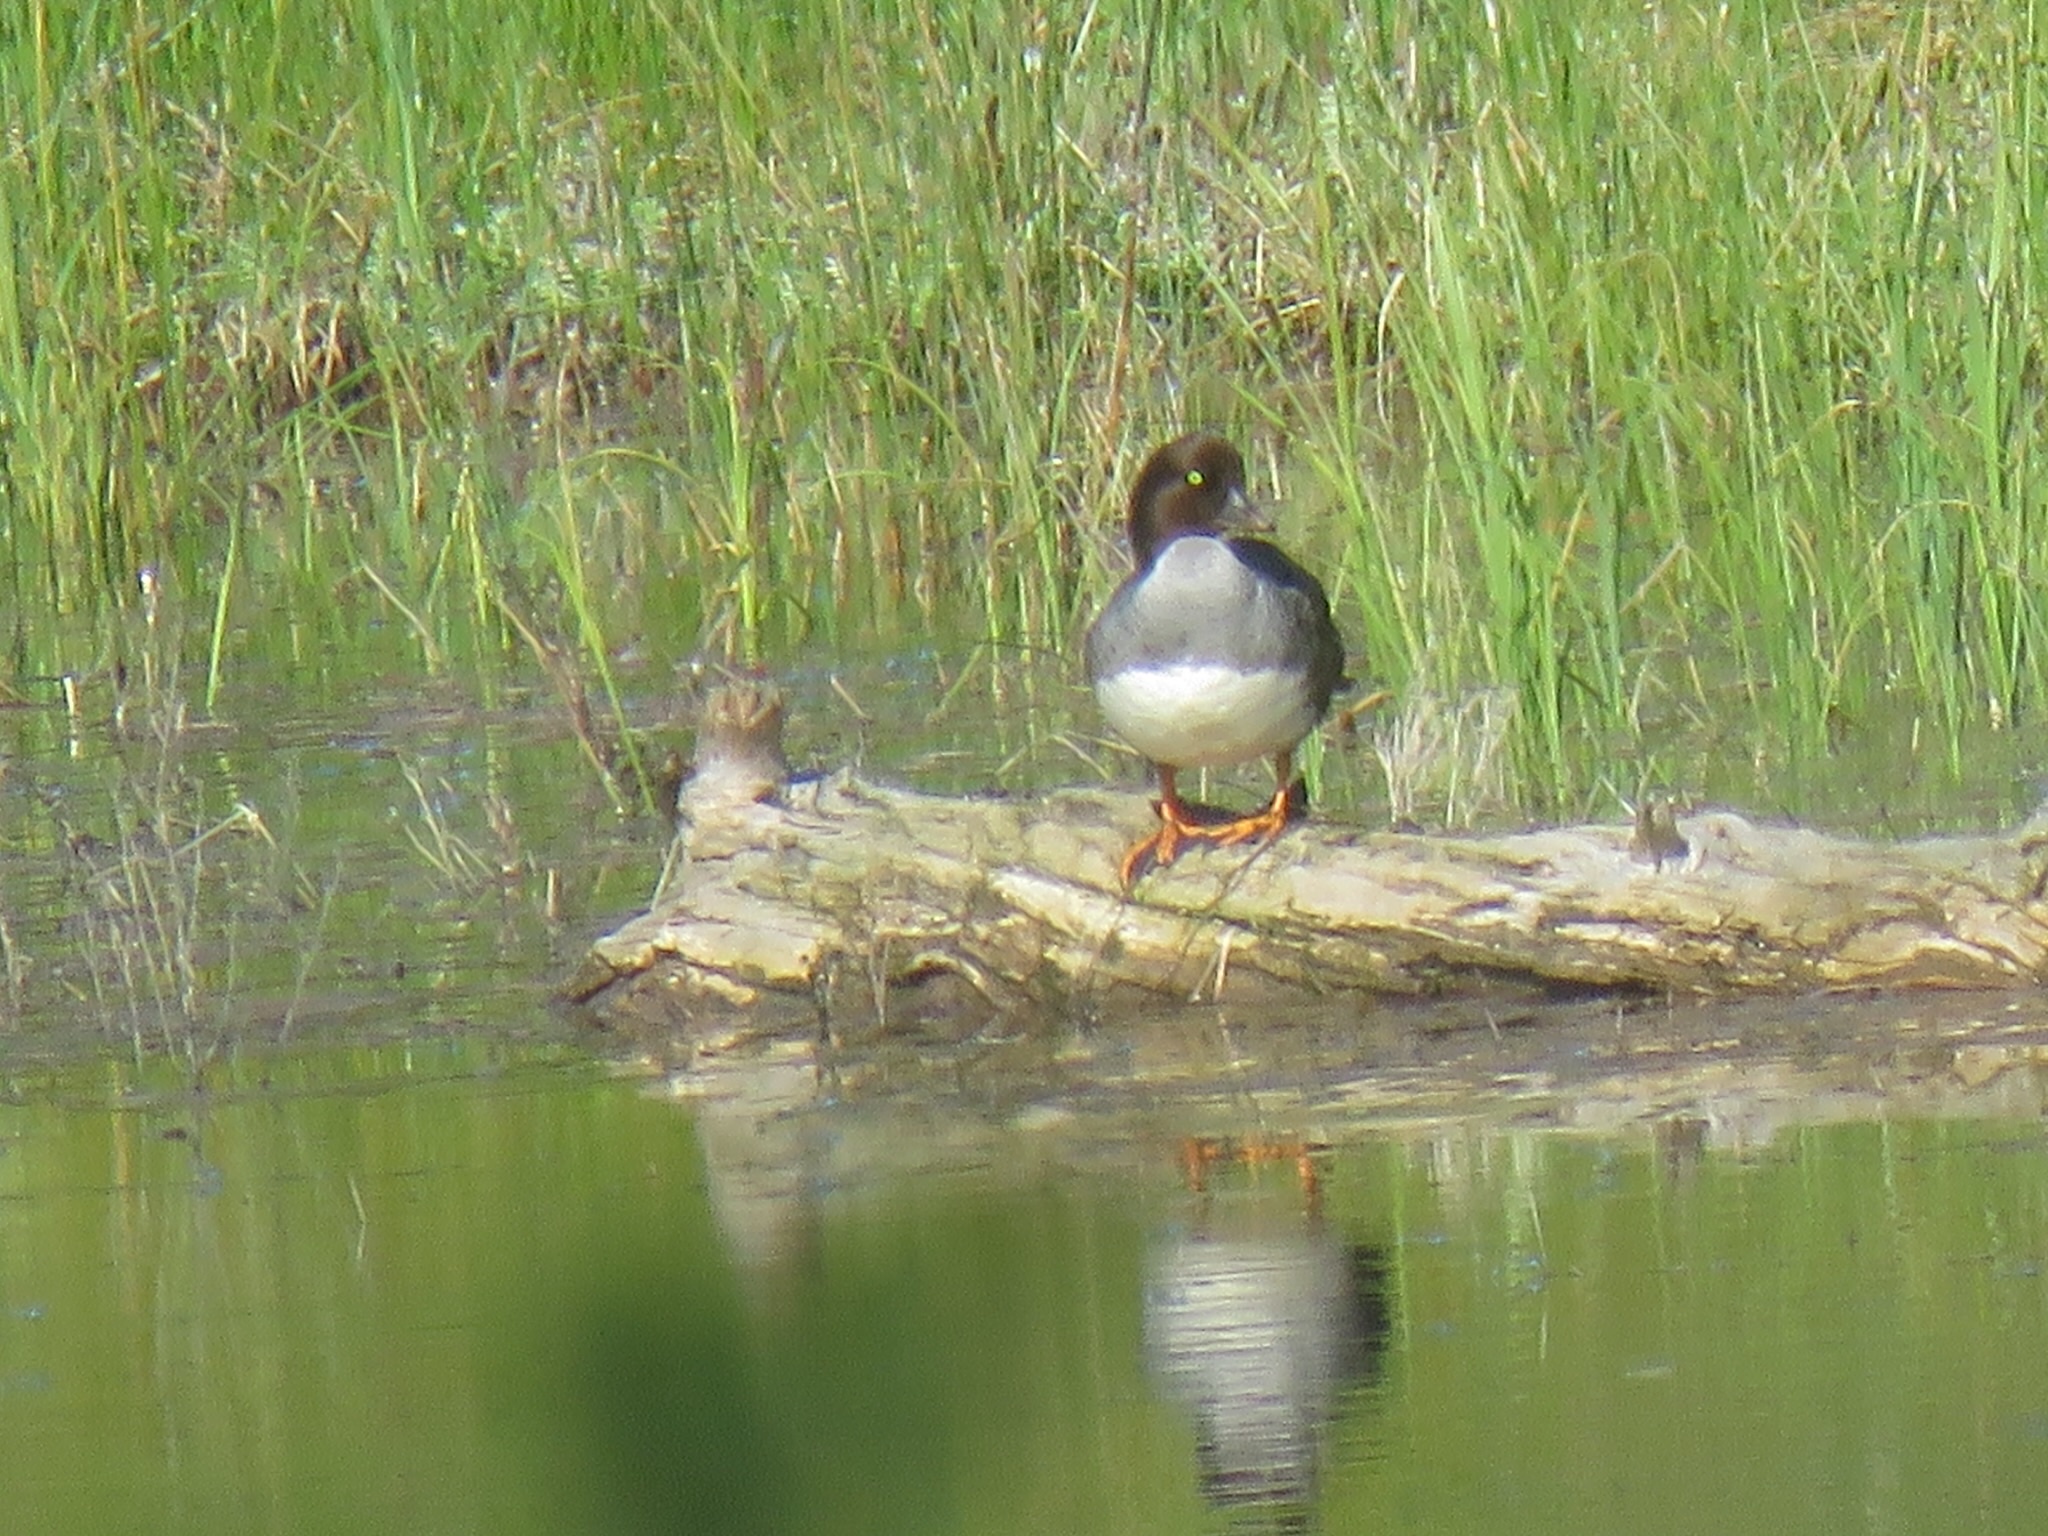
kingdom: Animalia
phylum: Chordata
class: Aves
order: Anseriformes
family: Anatidae
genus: Bucephala
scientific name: Bucephala clangula
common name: Common goldeneye
